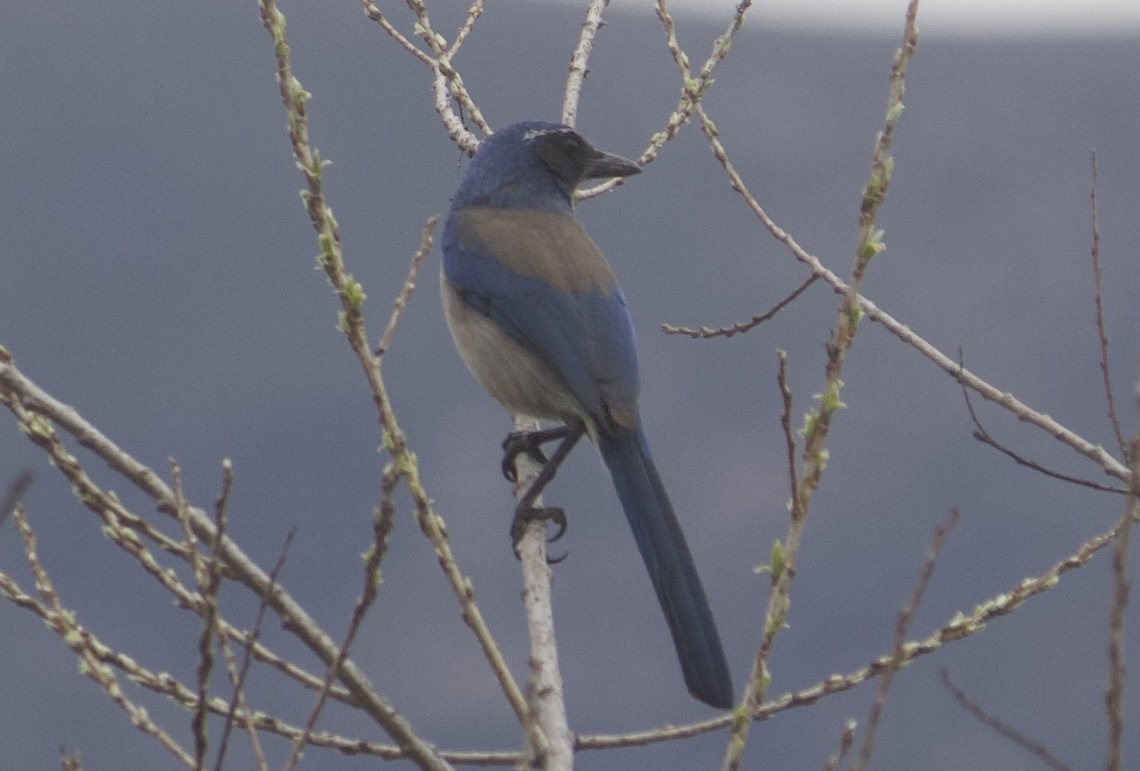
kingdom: Animalia
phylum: Chordata
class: Aves
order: Passeriformes
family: Corvidae
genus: Aphelocoma
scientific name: Aphelocoma californica
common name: California scrub-jay
